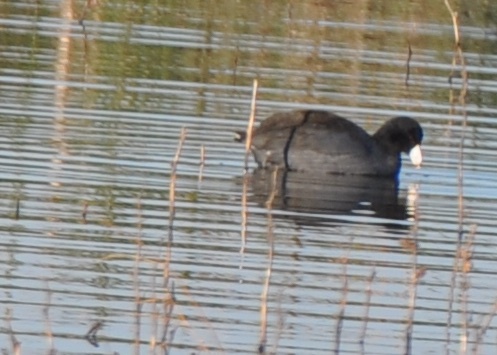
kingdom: Animalia
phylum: Chordata
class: Aves
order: Gruiformes
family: Rallidae
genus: Fulica
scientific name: Fulica americana
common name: American coot
